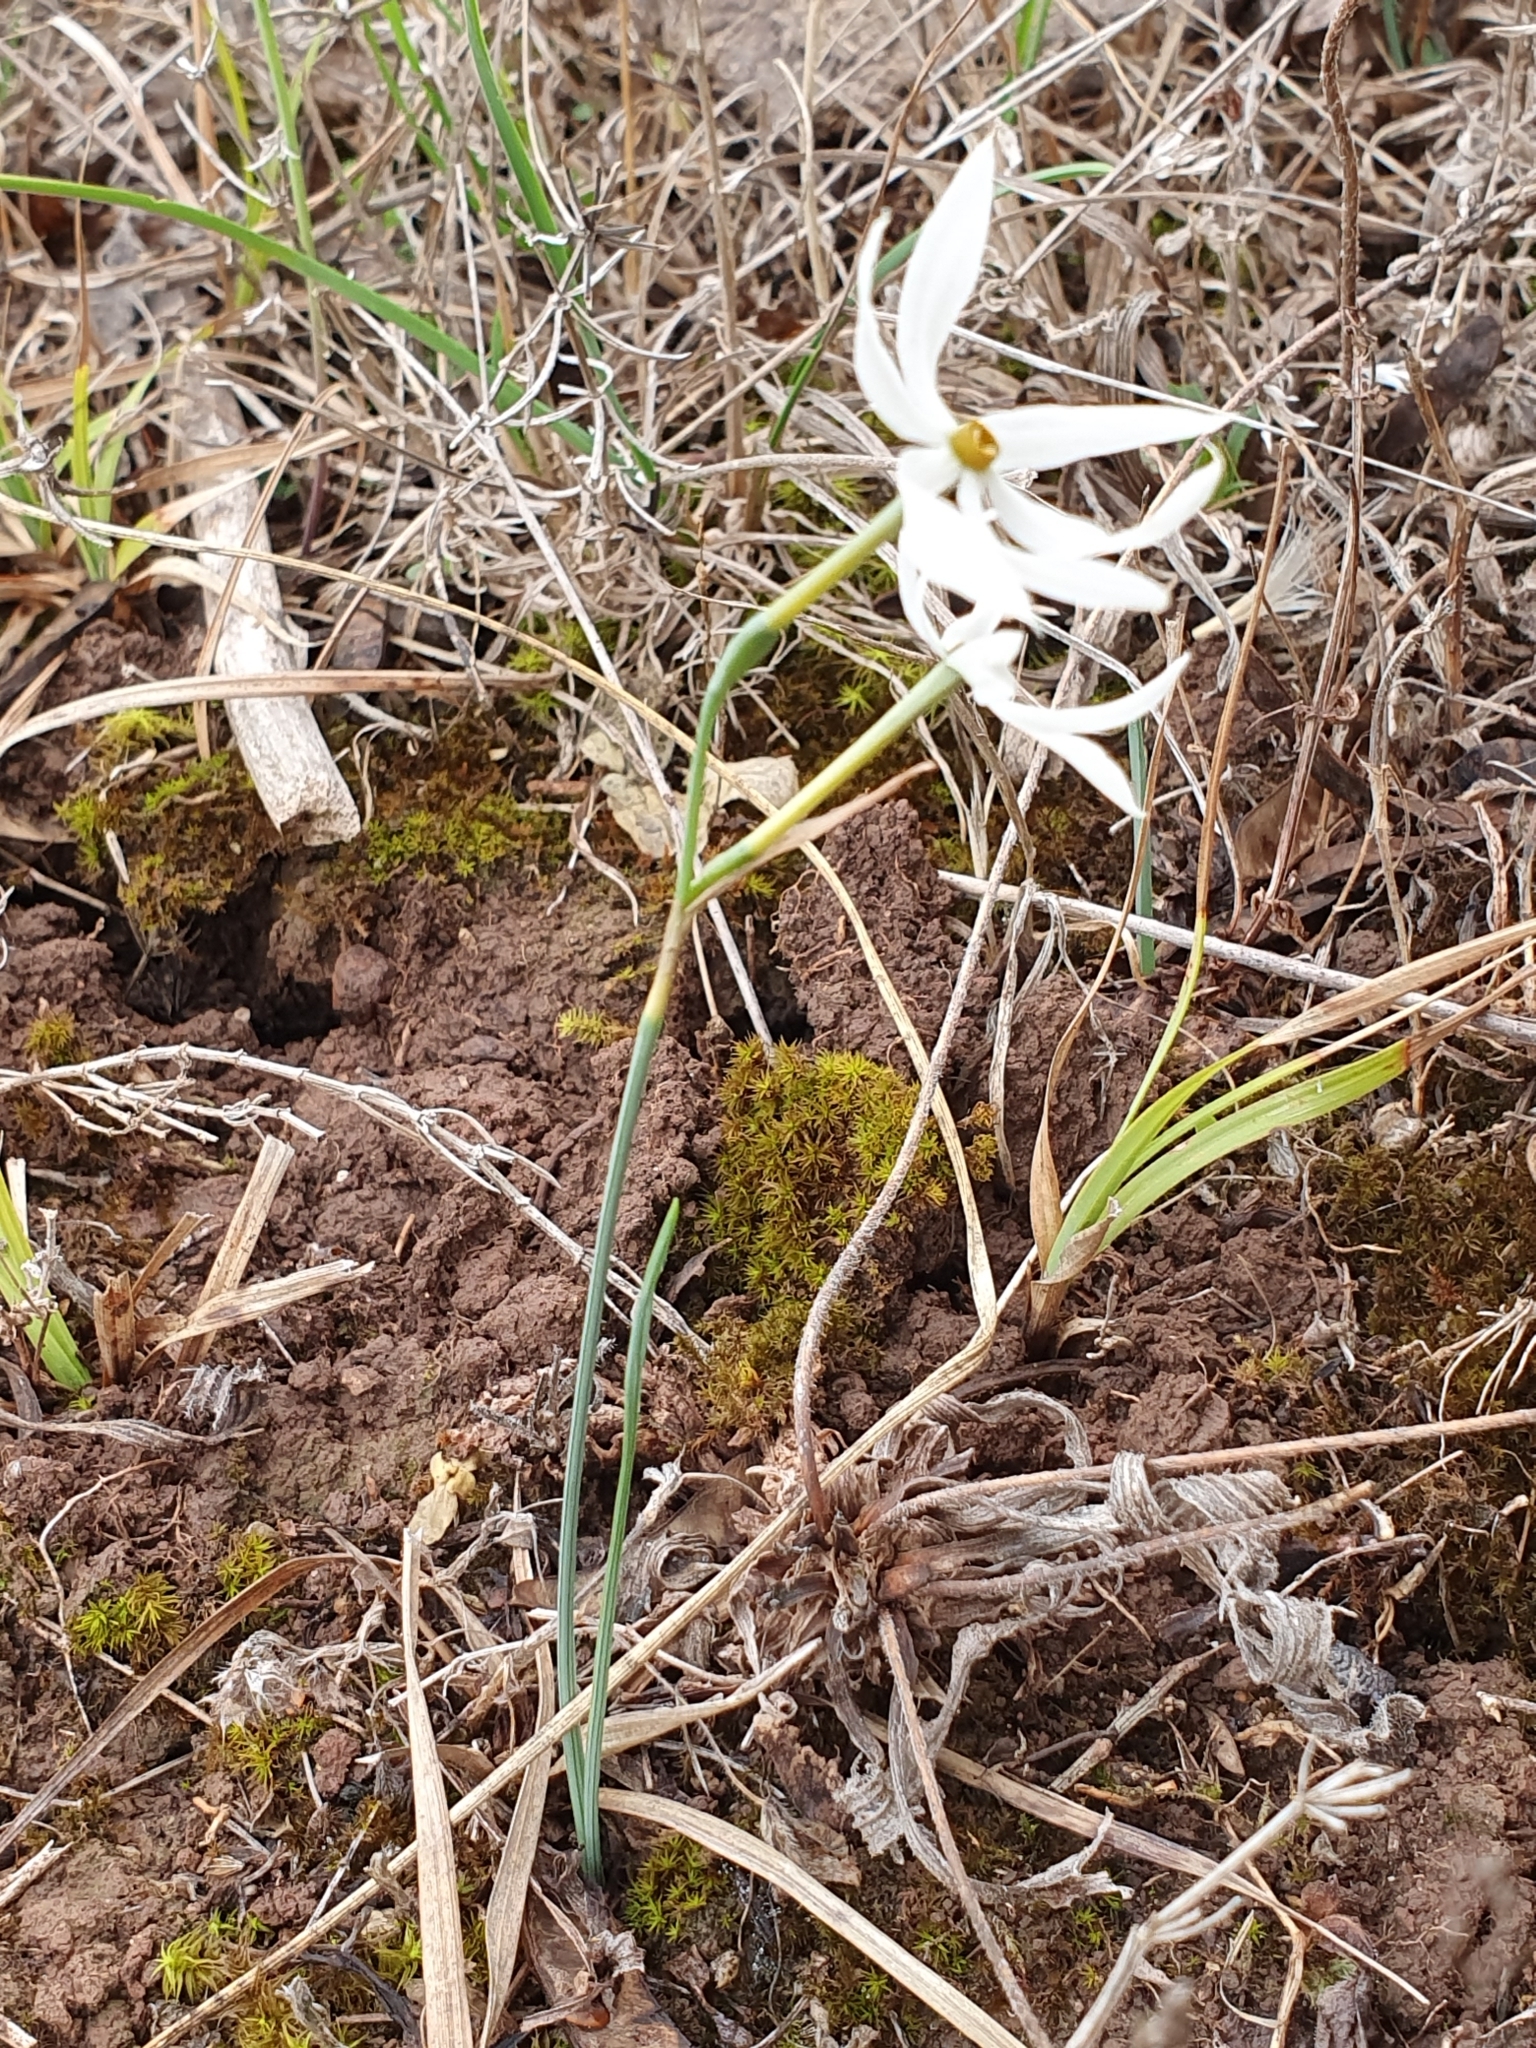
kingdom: Plantae
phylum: Tracheophyta
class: Liliopsida
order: Asparagales
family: Amaryllidaceae
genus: Narcissus
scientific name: Narcissus obsoletus
